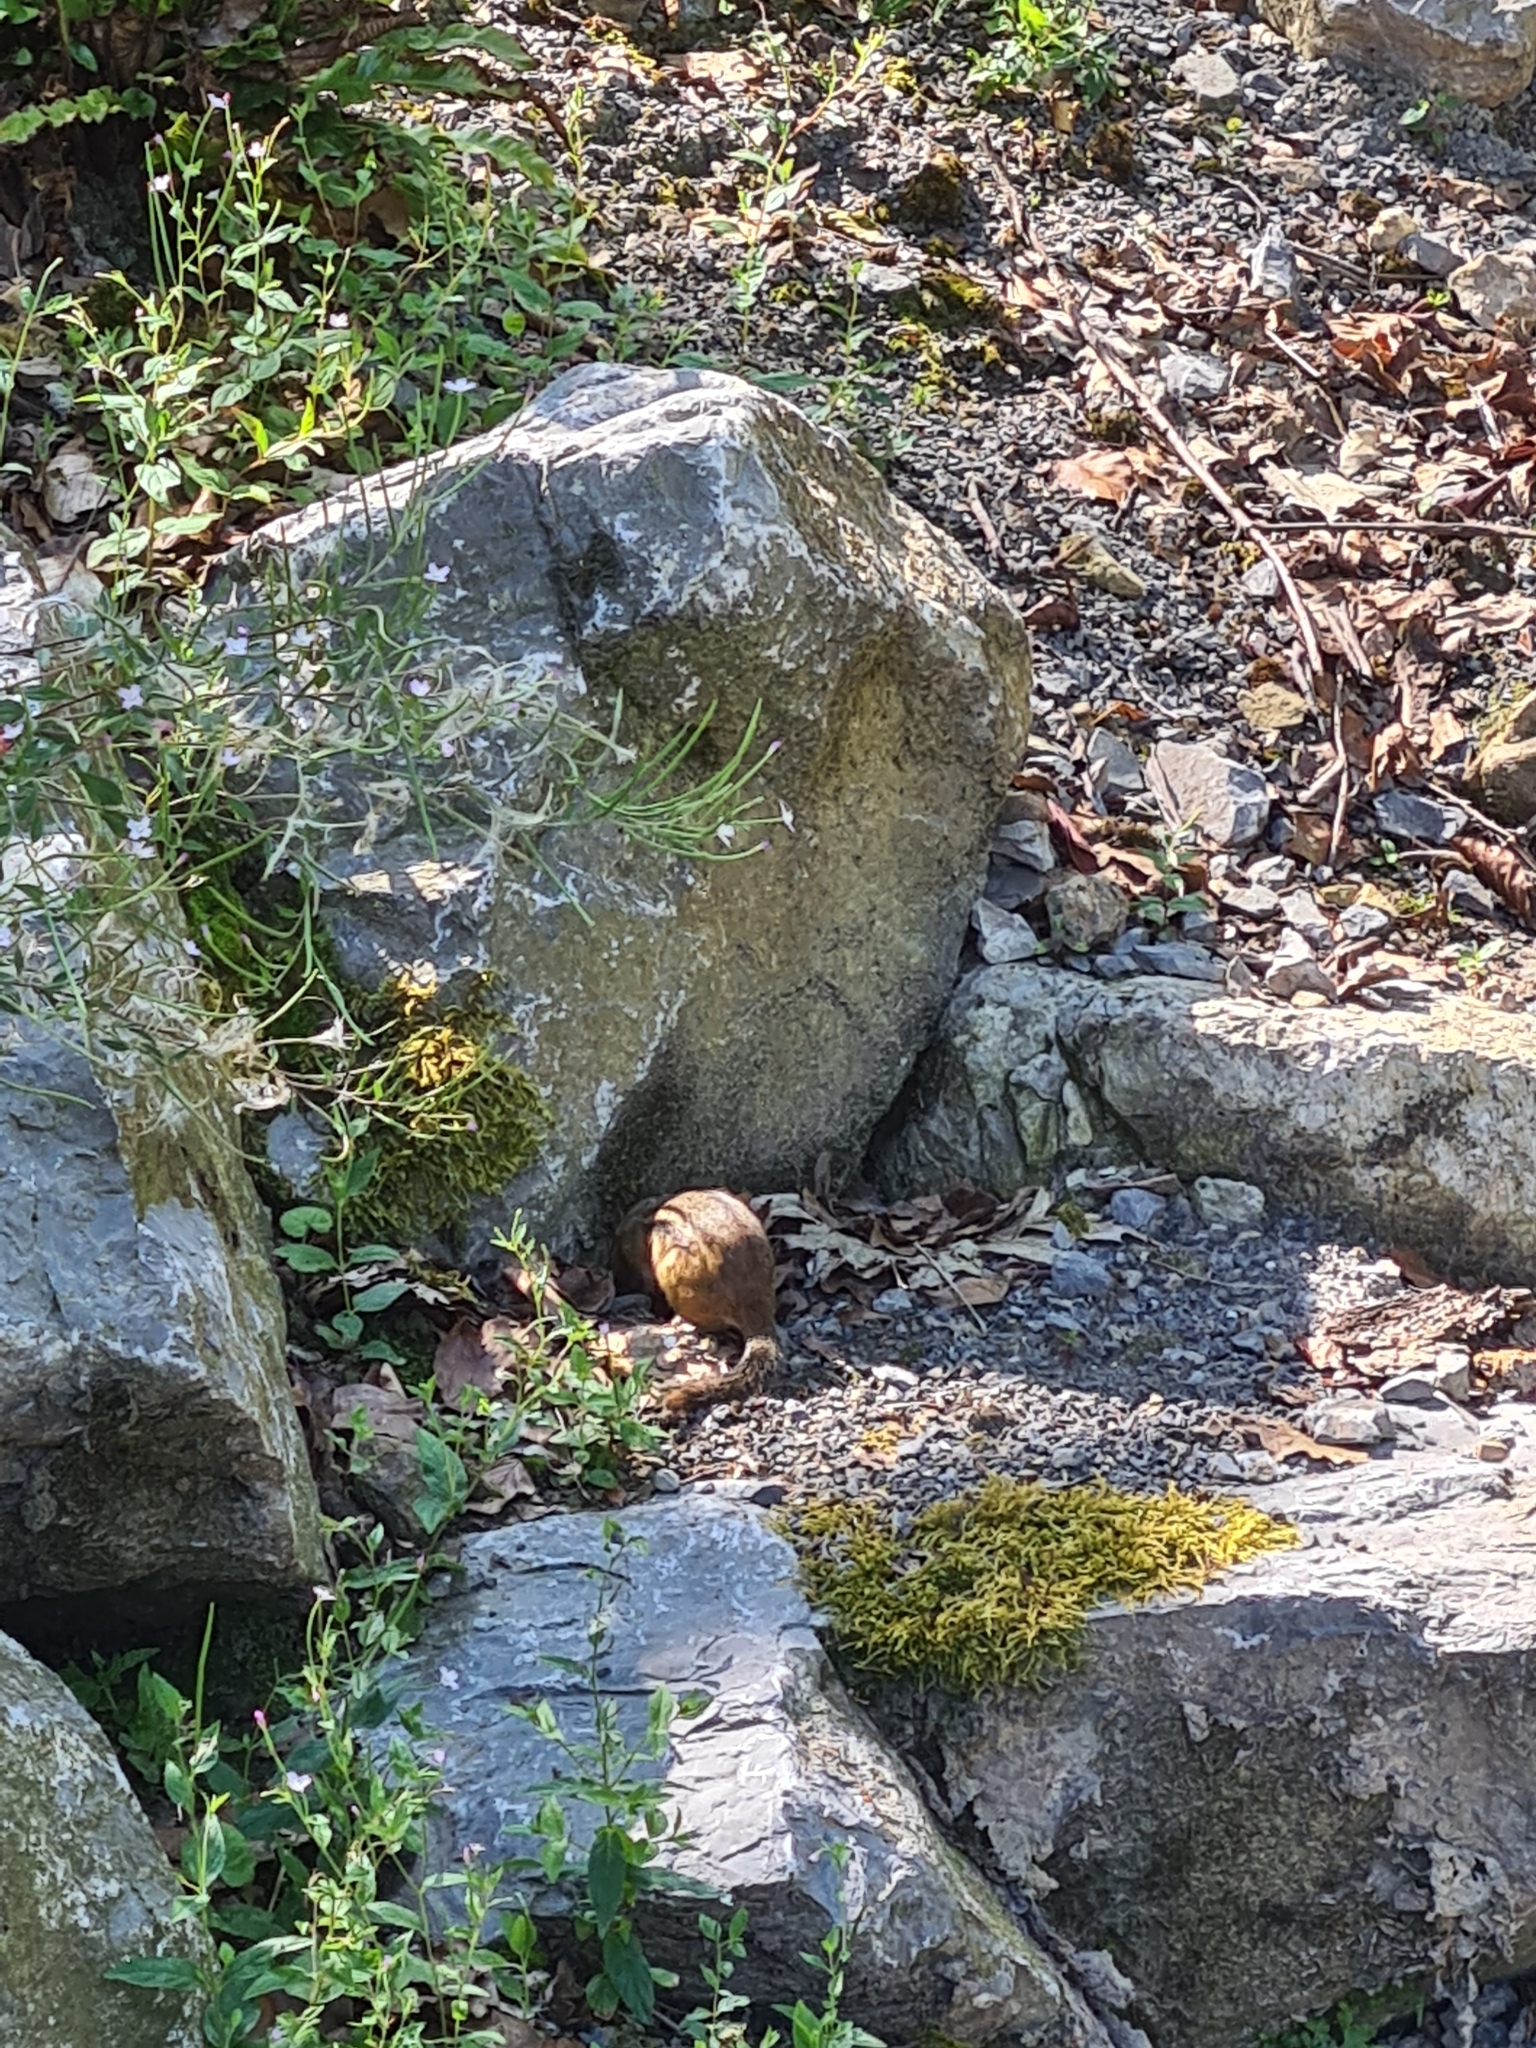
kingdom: Animalia
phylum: Chordata
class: Mammalia
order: Rodentia
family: Sciuridae
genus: Tamias
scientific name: Tamias striatus
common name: Eastern chipmunk
